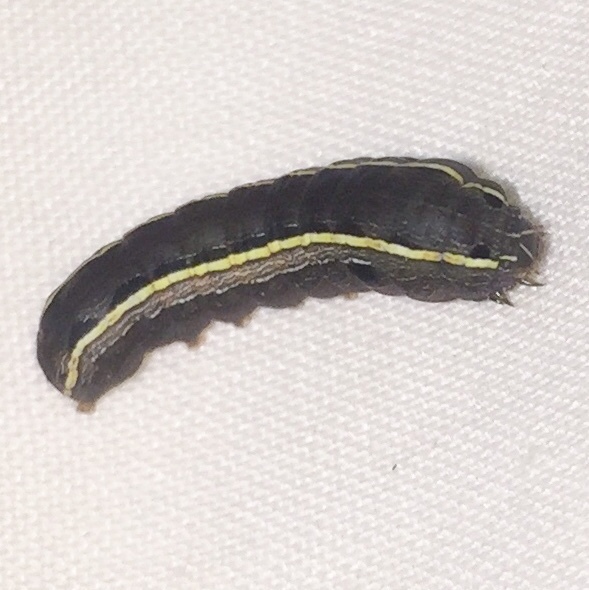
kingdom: Animalia
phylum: Arthropoda
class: Insecta
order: Lepidoptera
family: Noctuidae
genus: Spodoptera
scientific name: Spodoptera ornithogalli
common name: Yellow-striped armyworm
